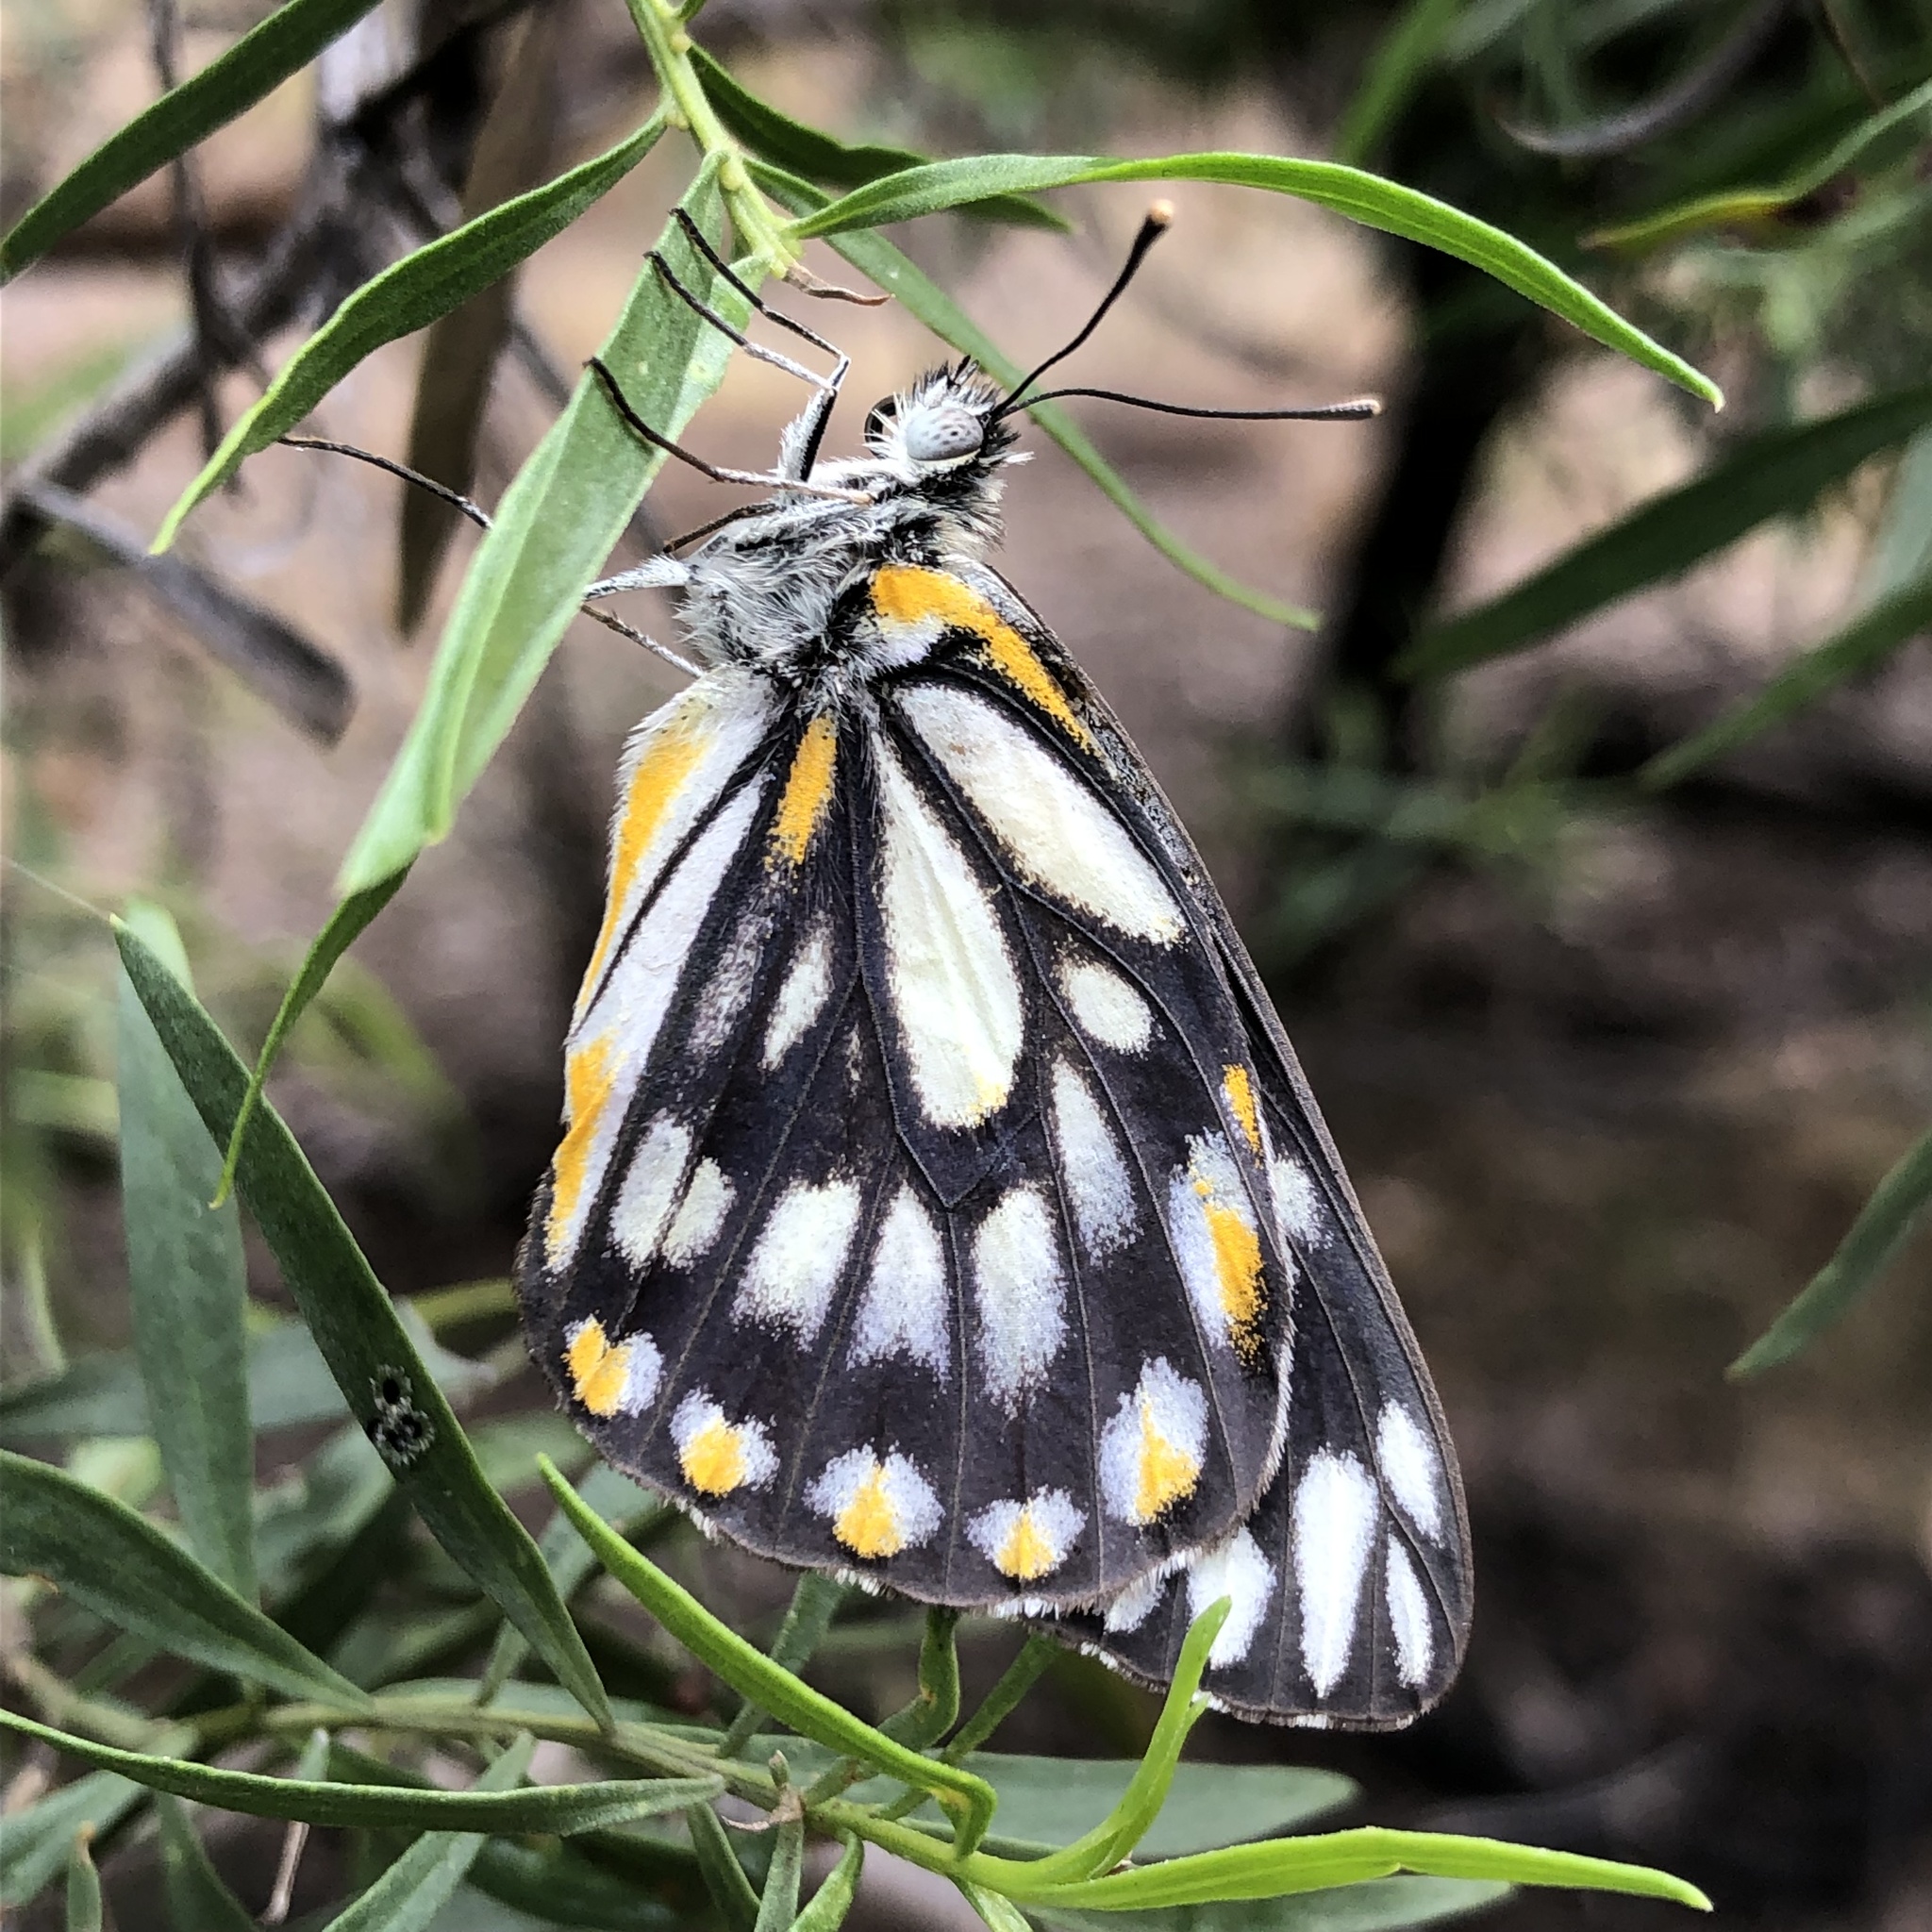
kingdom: Animalia
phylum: Arthropoda
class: Insecta
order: Lepidoptera
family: Pieridae
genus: Belenois
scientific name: Belenois java
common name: Caper white
